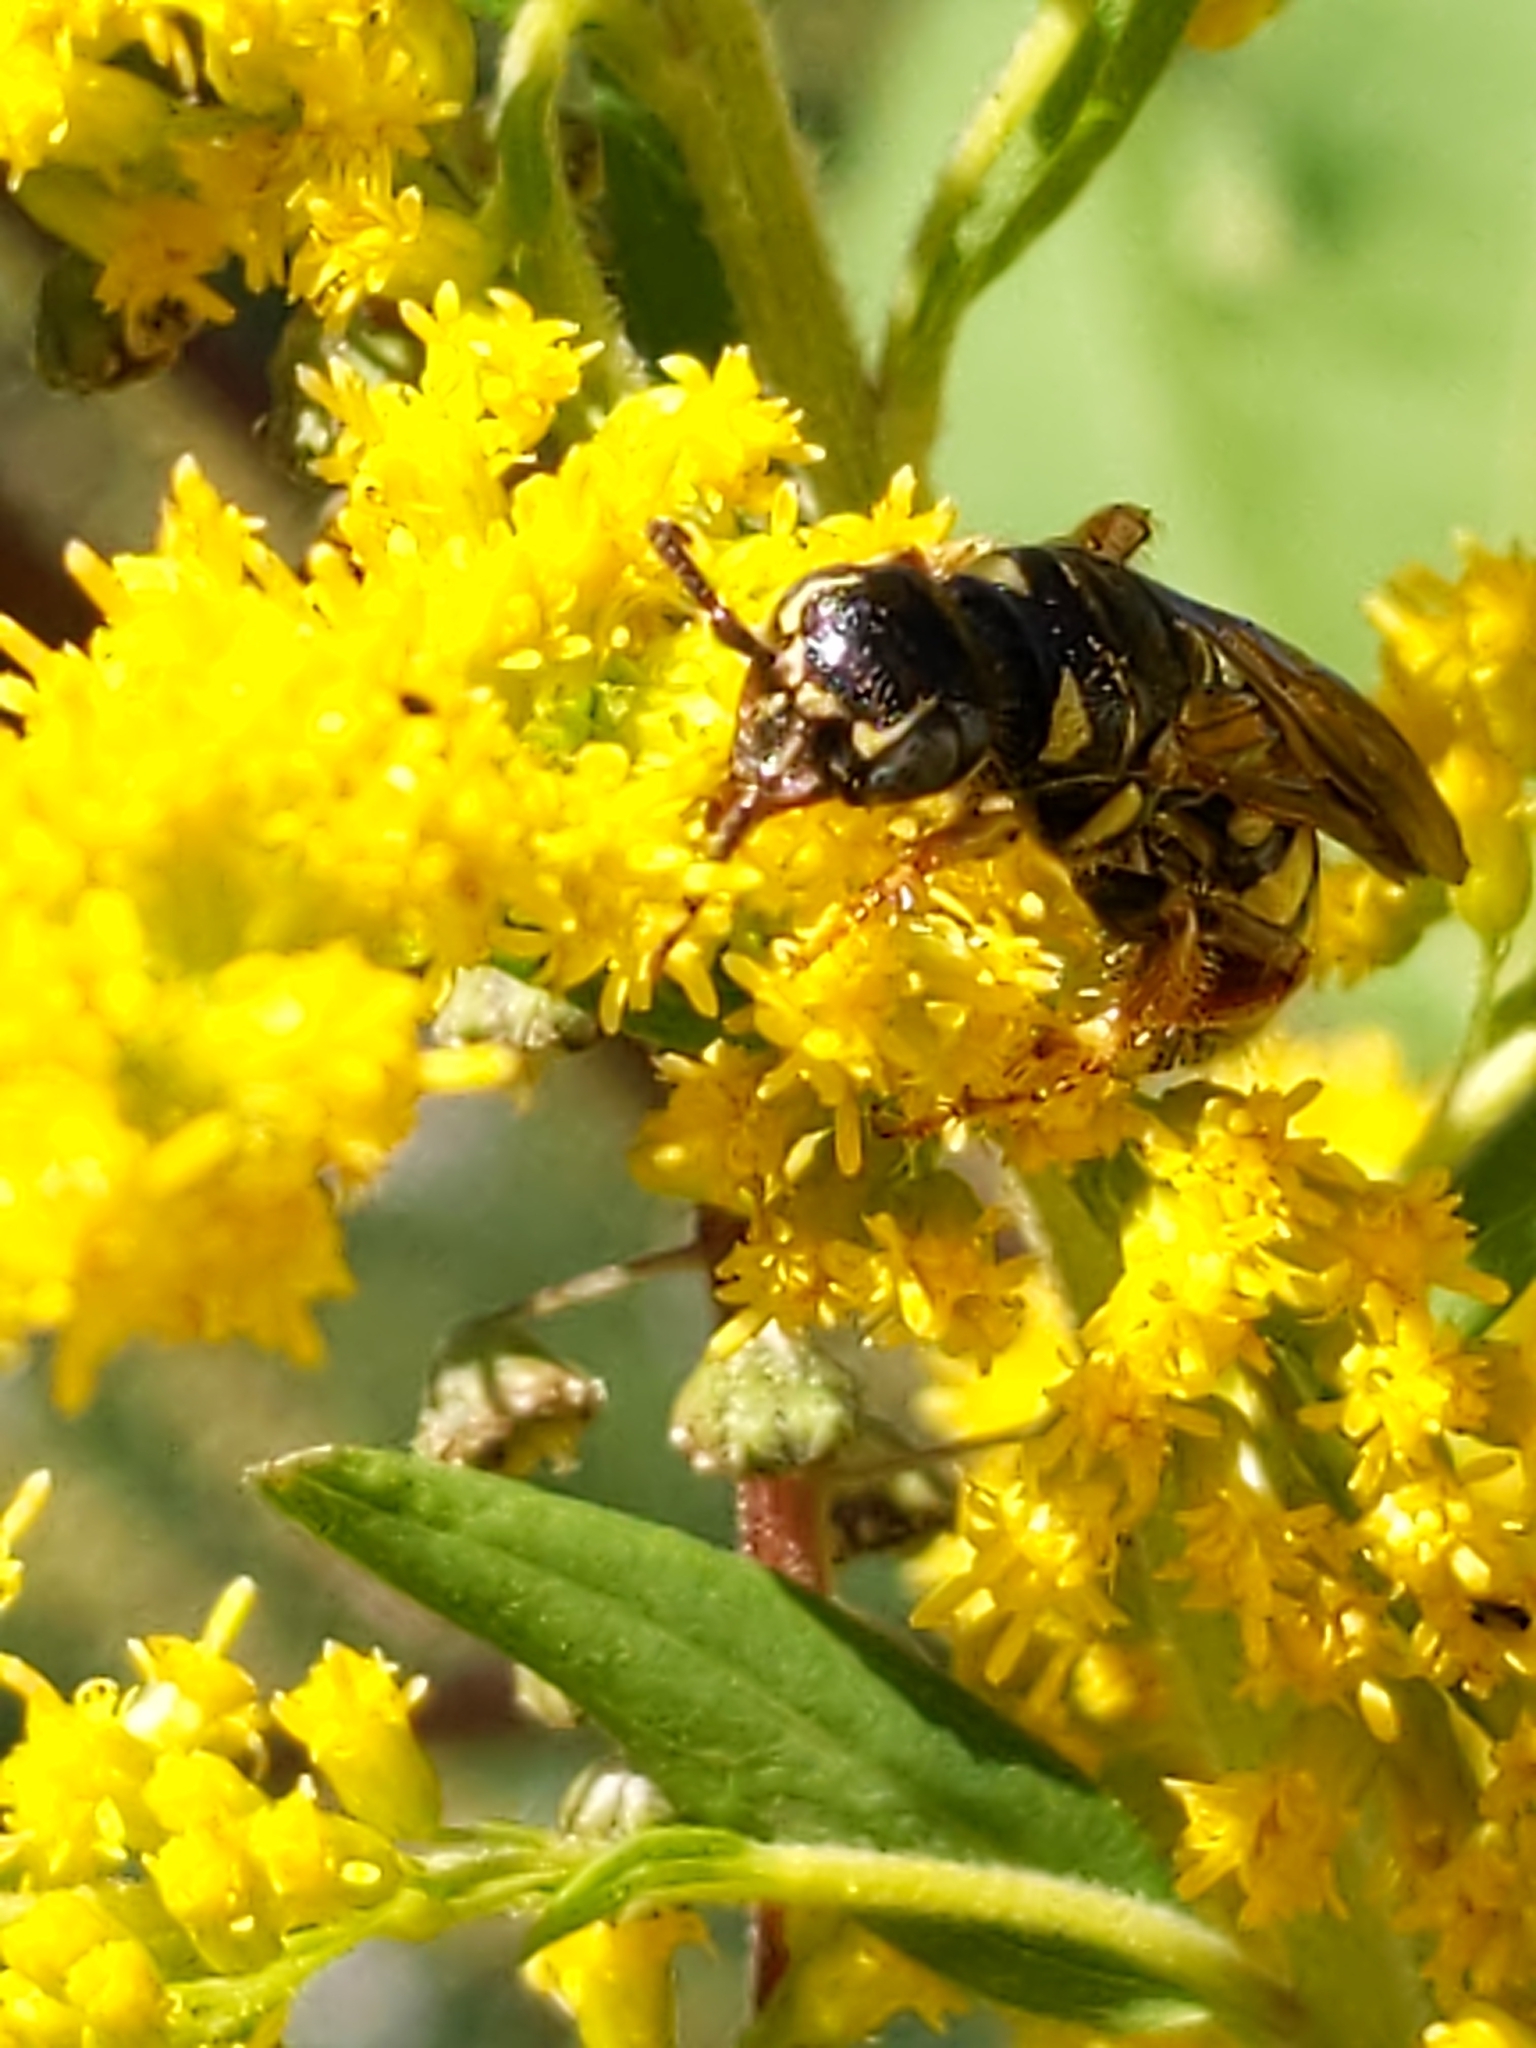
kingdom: Animalia
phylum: Arthropoda
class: Insecta
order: Hymenoptera
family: Tiphiidae
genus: Myzinum
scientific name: Myzinum quinquecinctum
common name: Five-banded thynnid wasp
